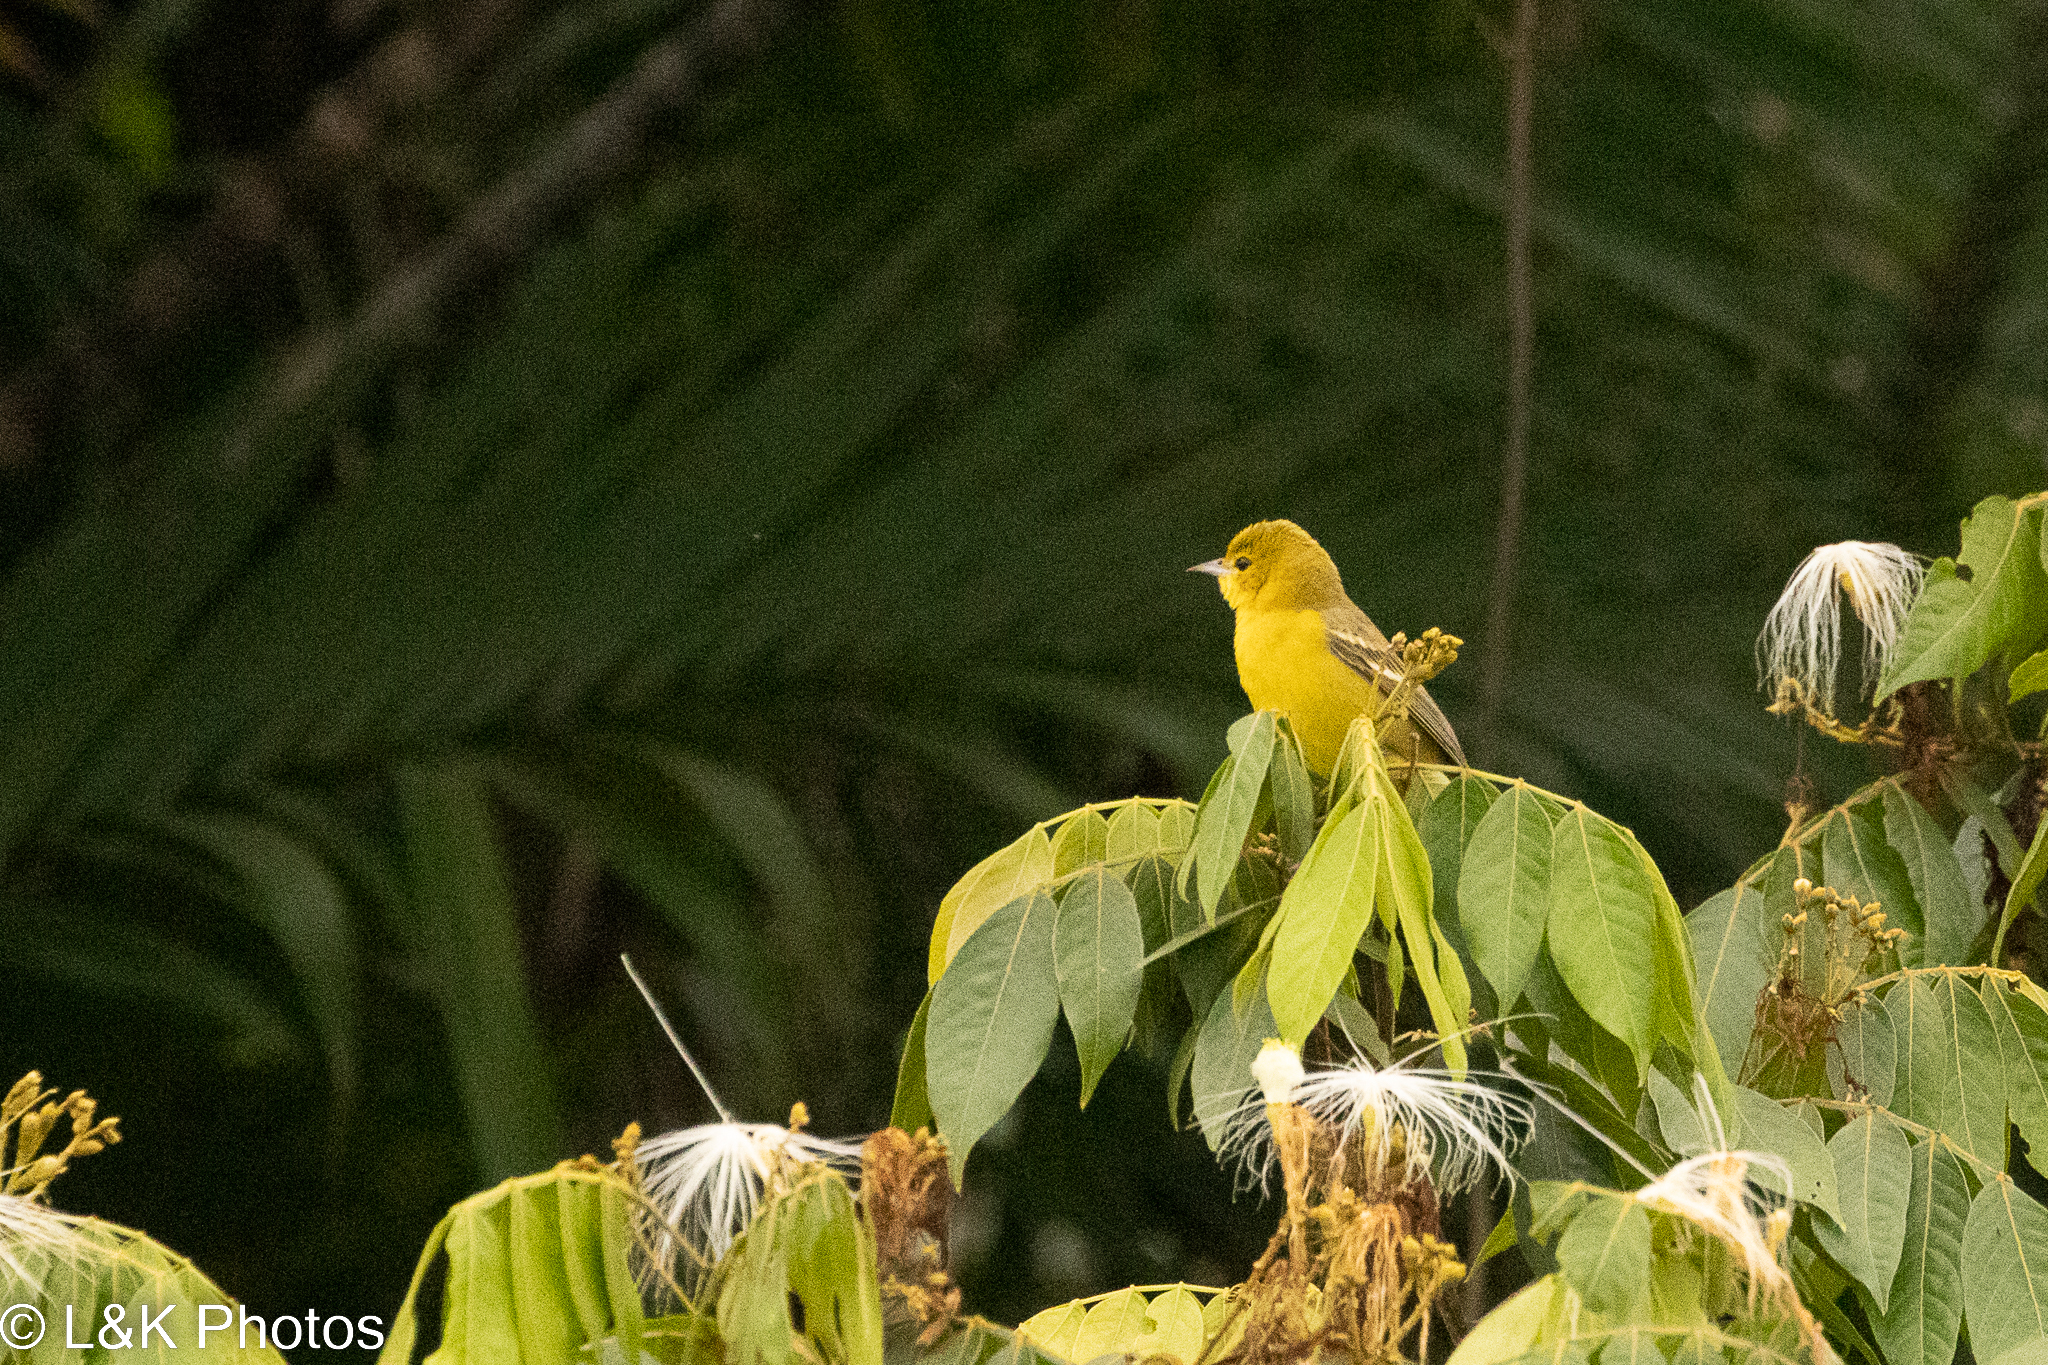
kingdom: Animalia
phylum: Chordata
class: Aves
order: Passeriformes
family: Icteridae
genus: Icterus
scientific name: Icterus spurius
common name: Orchard oriole
